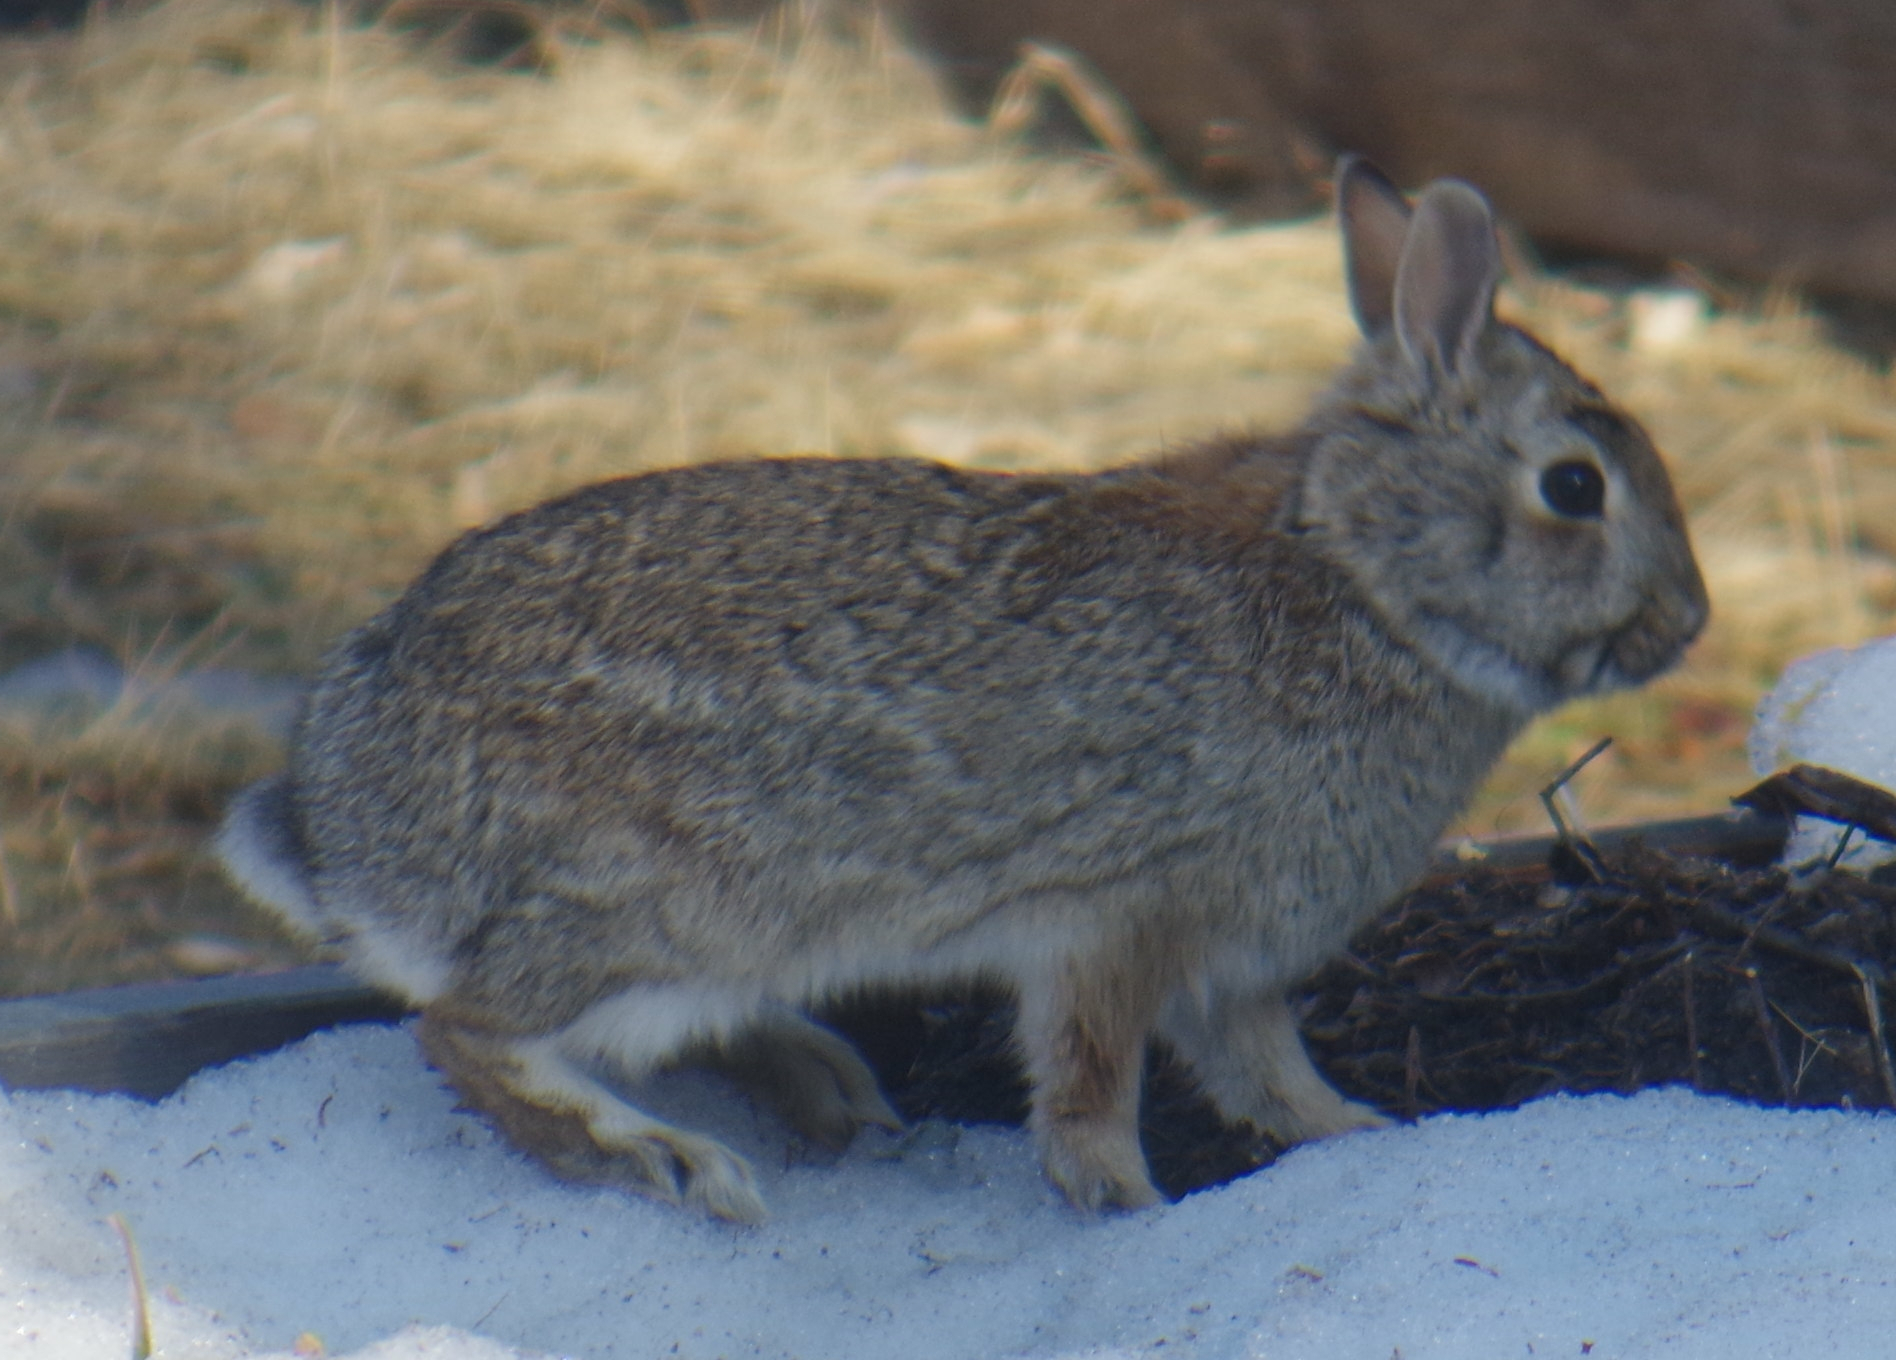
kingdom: Animalia
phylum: Chordata
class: Mammalia
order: Lagomorpha
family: Leporidae
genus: Sylvilagus
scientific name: Sylvilagus floridanus
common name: Eastern cottontail
